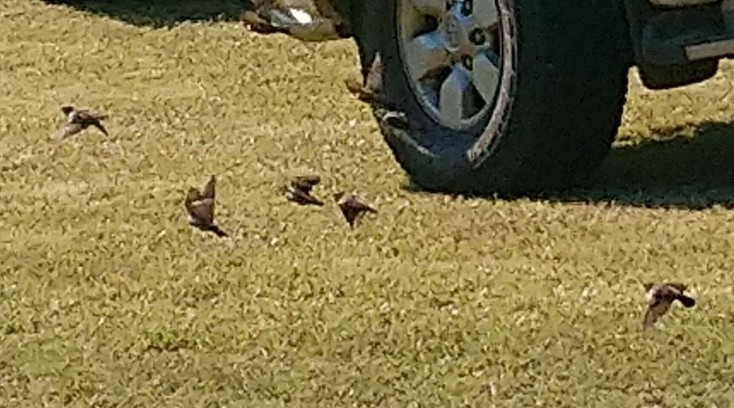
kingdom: Animalia
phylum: Chordata
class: Aves
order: Passeriformes
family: Estrildidae
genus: Lonchura
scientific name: Lonchura cucullata
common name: Bronze mannikin
